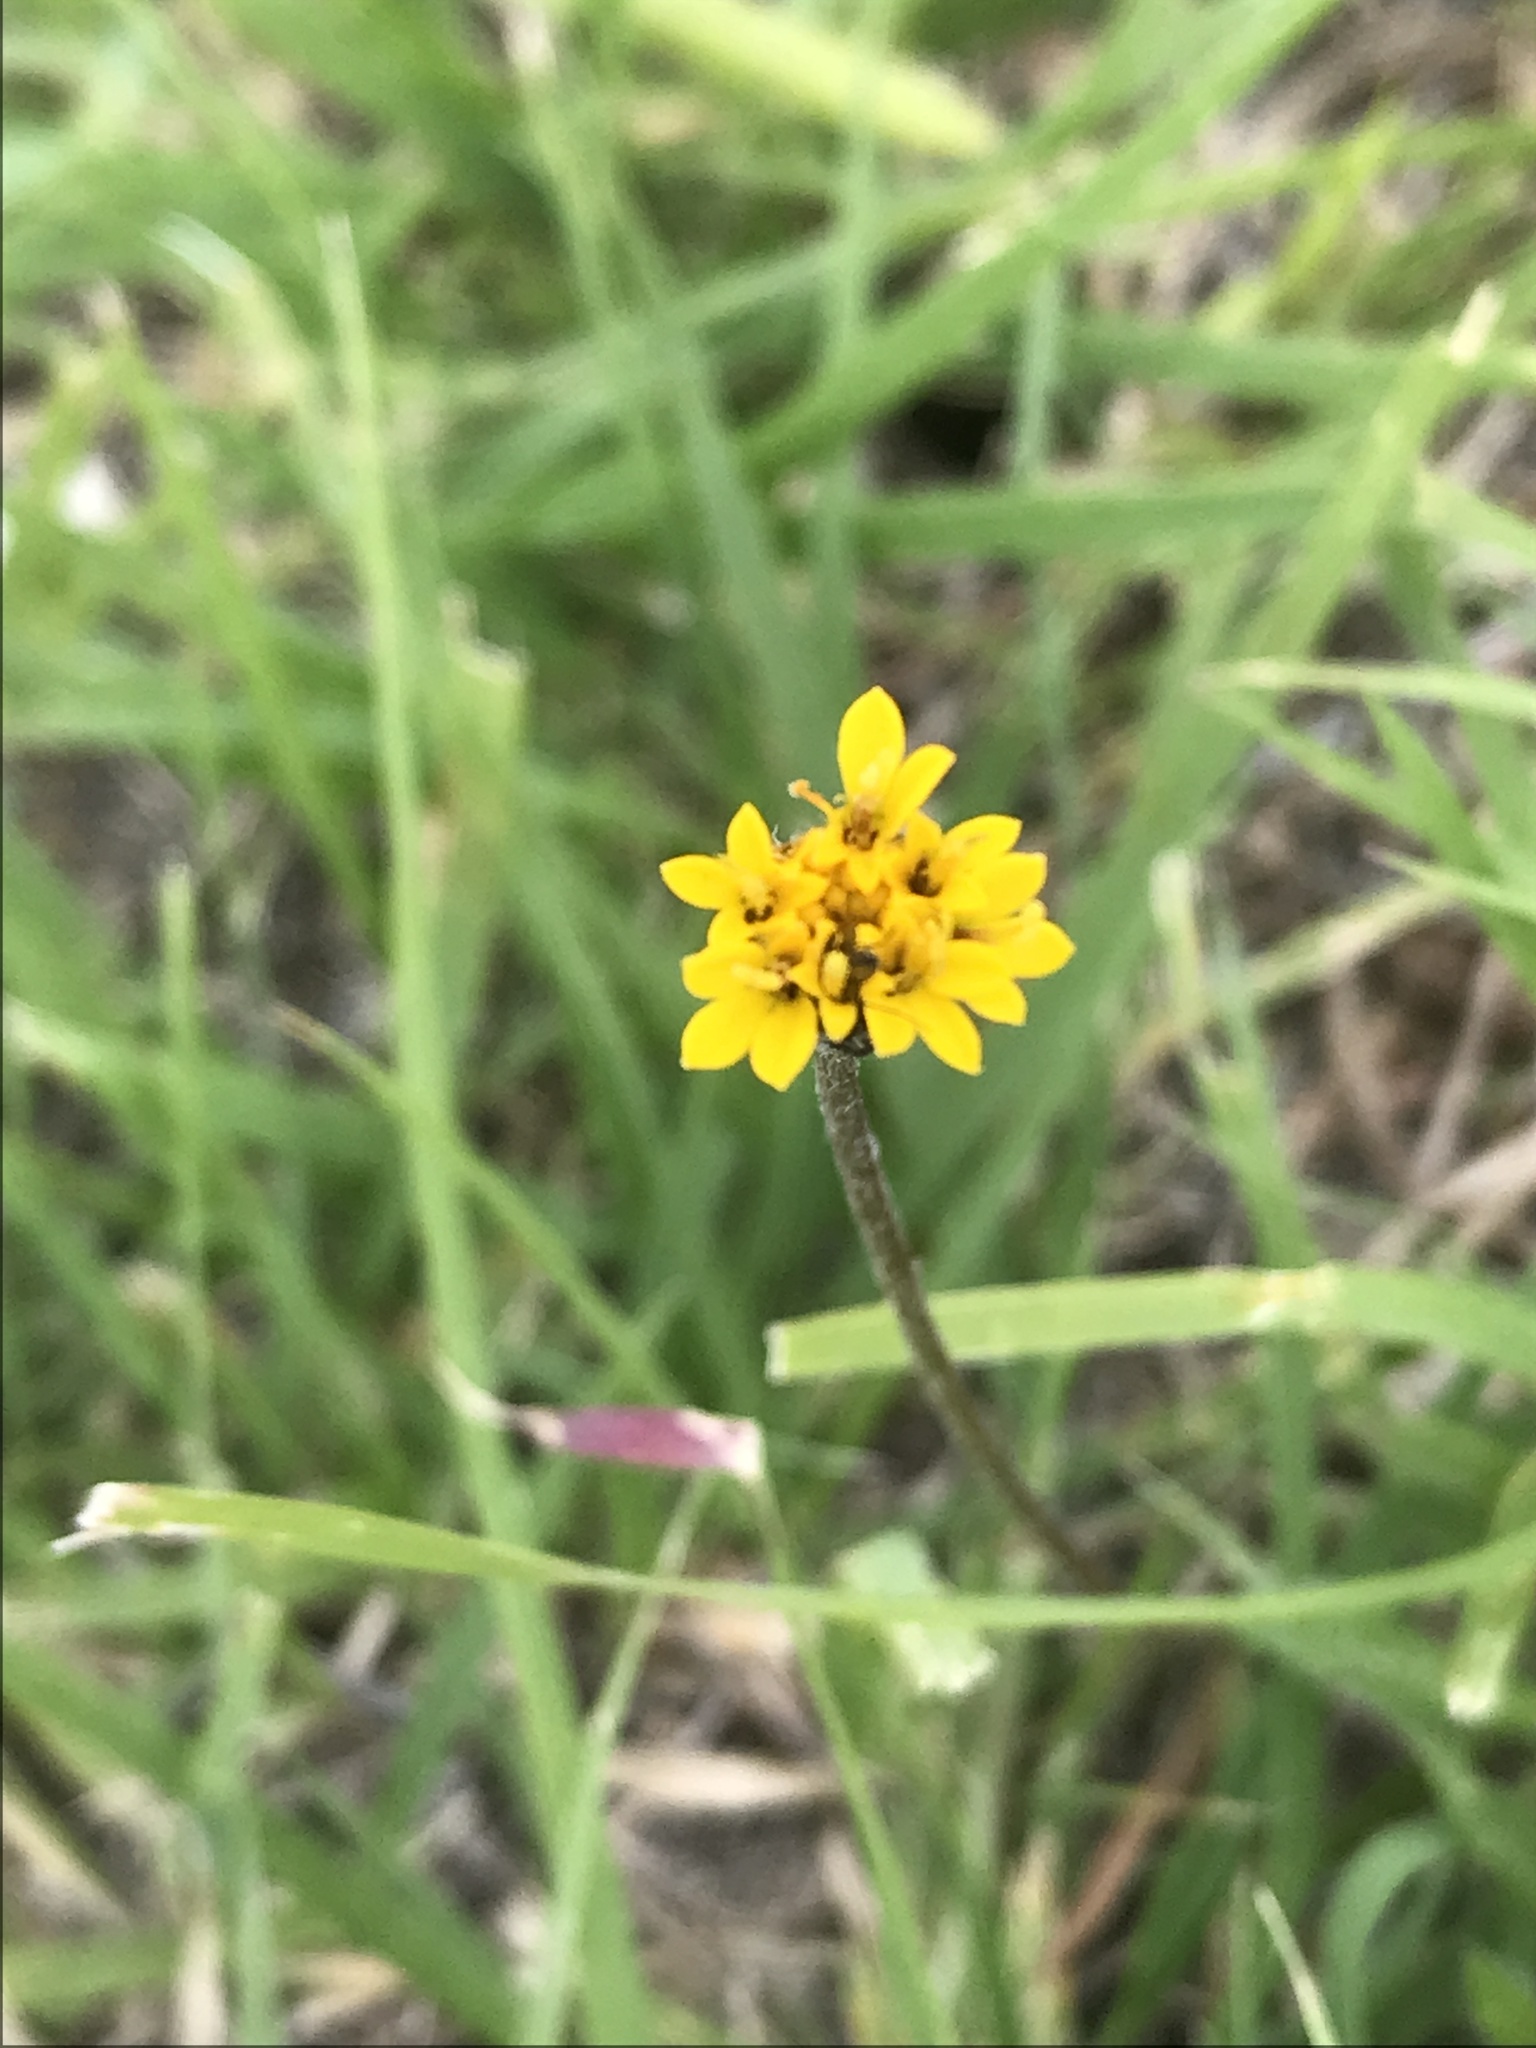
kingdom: Plantae
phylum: Tracheophyta
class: Magnoliopsida
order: Asterales
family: Asteraceae
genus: Tridax
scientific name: Tridax coronopifolia
